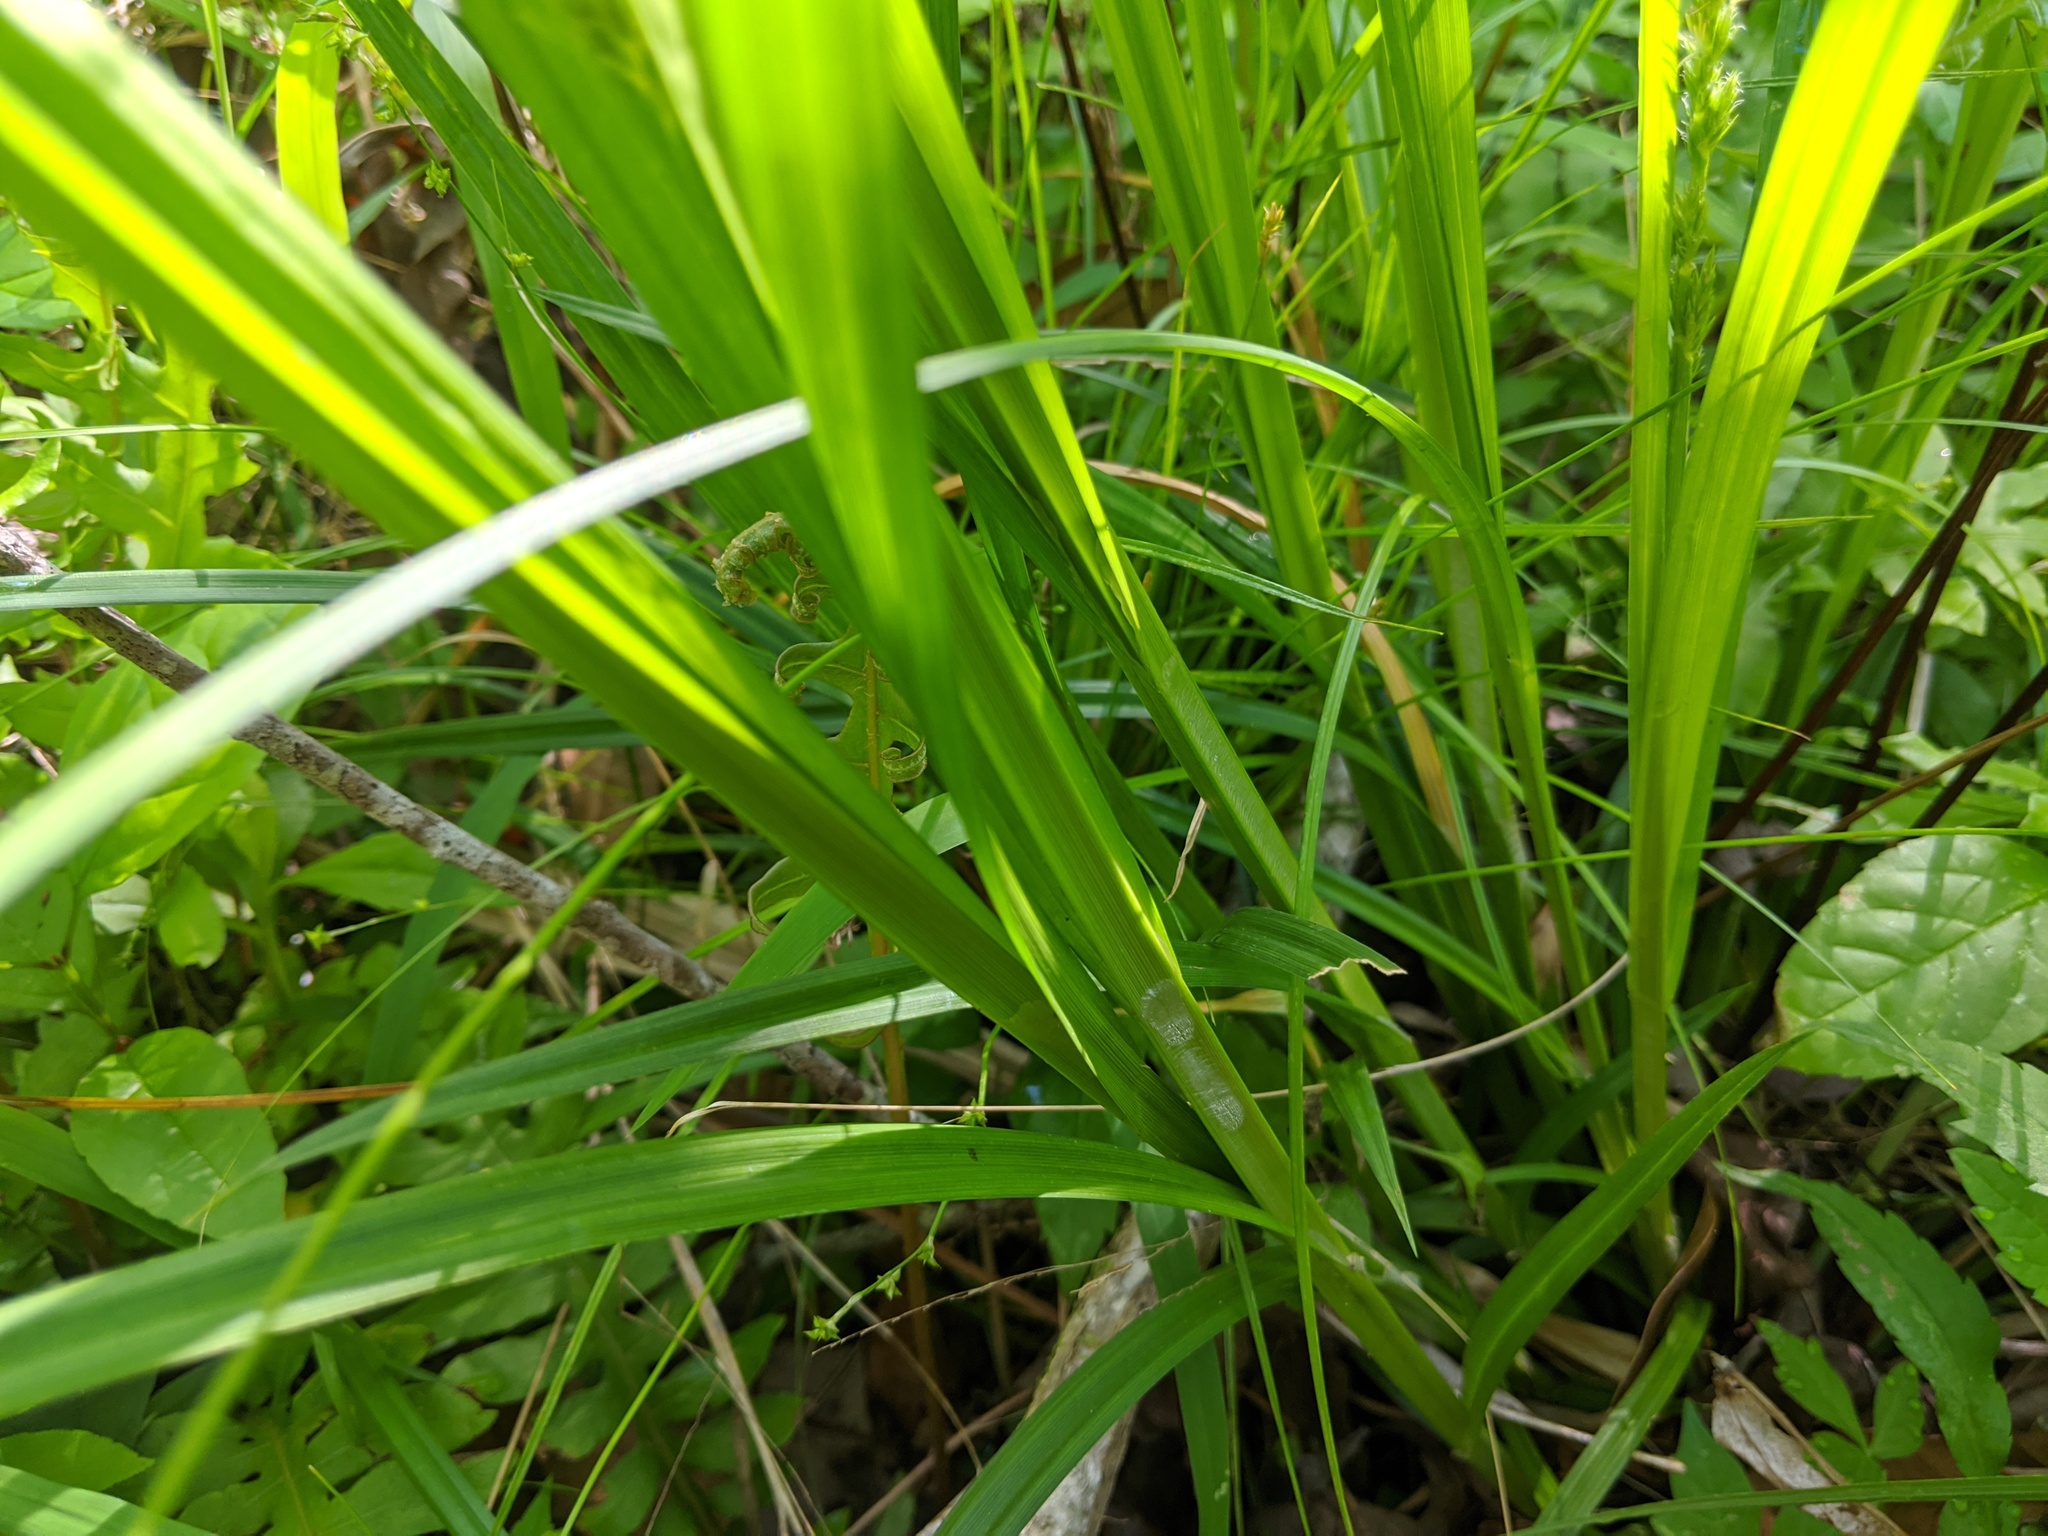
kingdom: Plantae
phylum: Tracheophyta
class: Liliopsida
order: Poales
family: Cyperaceae
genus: Carex
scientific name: Carex stipata
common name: Awl-fruited sedge
